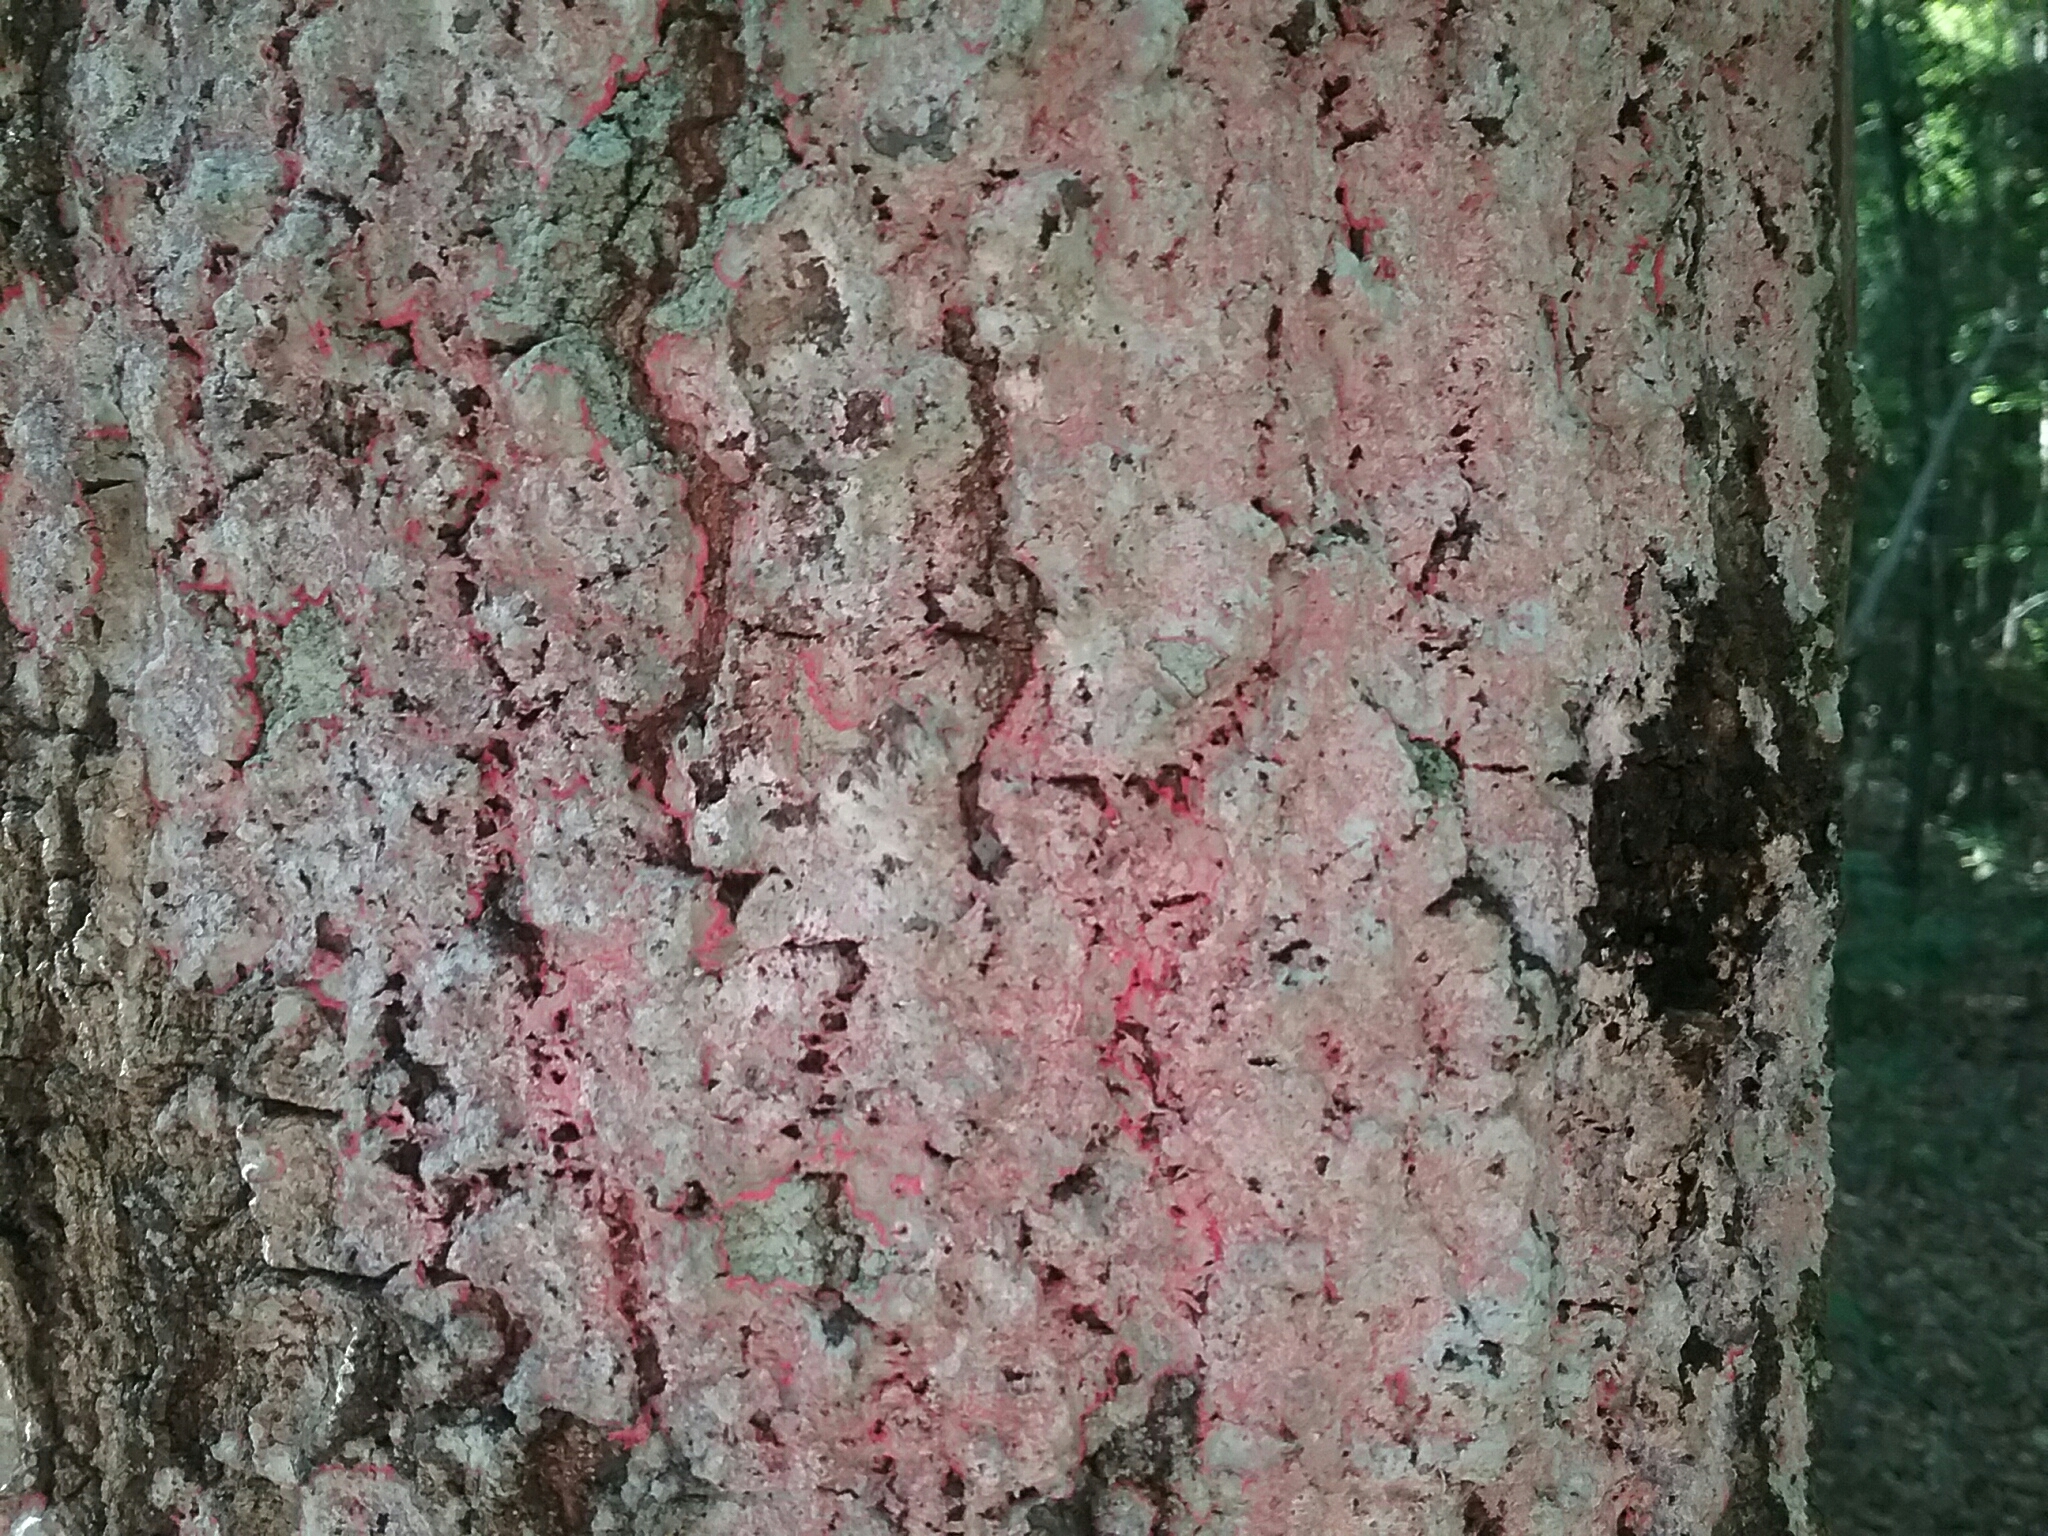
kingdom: Fungi
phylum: Ascomycota
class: Arthoniomycetes
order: Arthoniales
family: Arthoniaceae
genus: Herpothallon
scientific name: Herpothallon rubrocinctum
